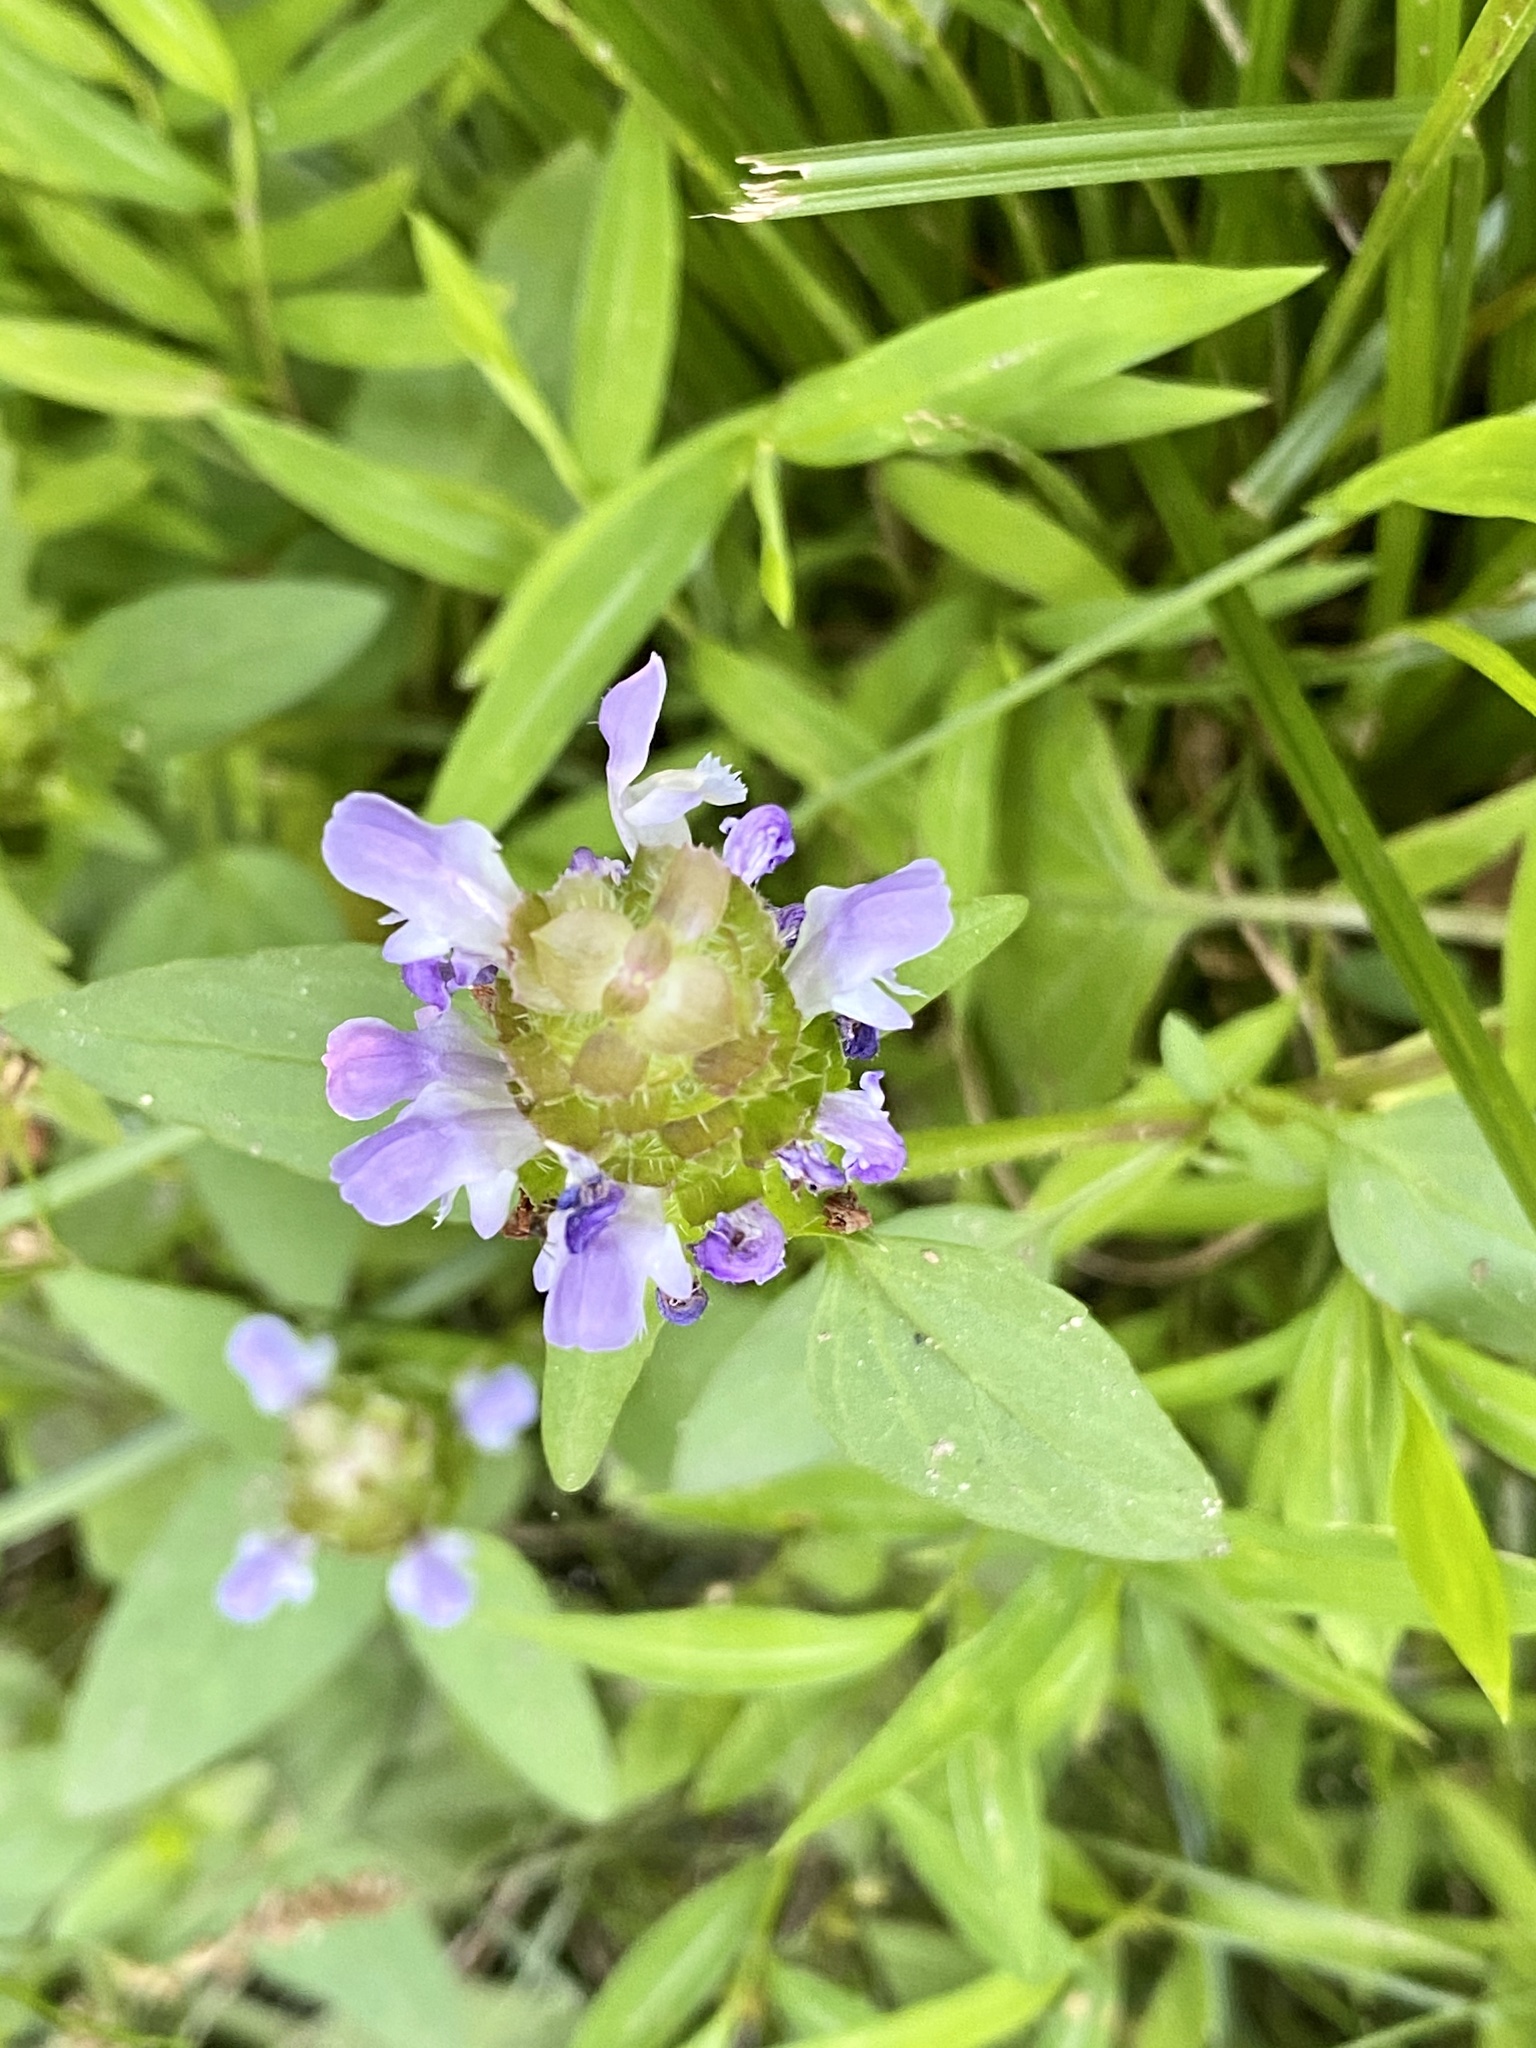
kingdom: Plantae
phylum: Tracheophyta
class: Magnoliopsida
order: Lamiales
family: Lamiaceae
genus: Prunella
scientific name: Prunella vulgaris
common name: Heal-all
